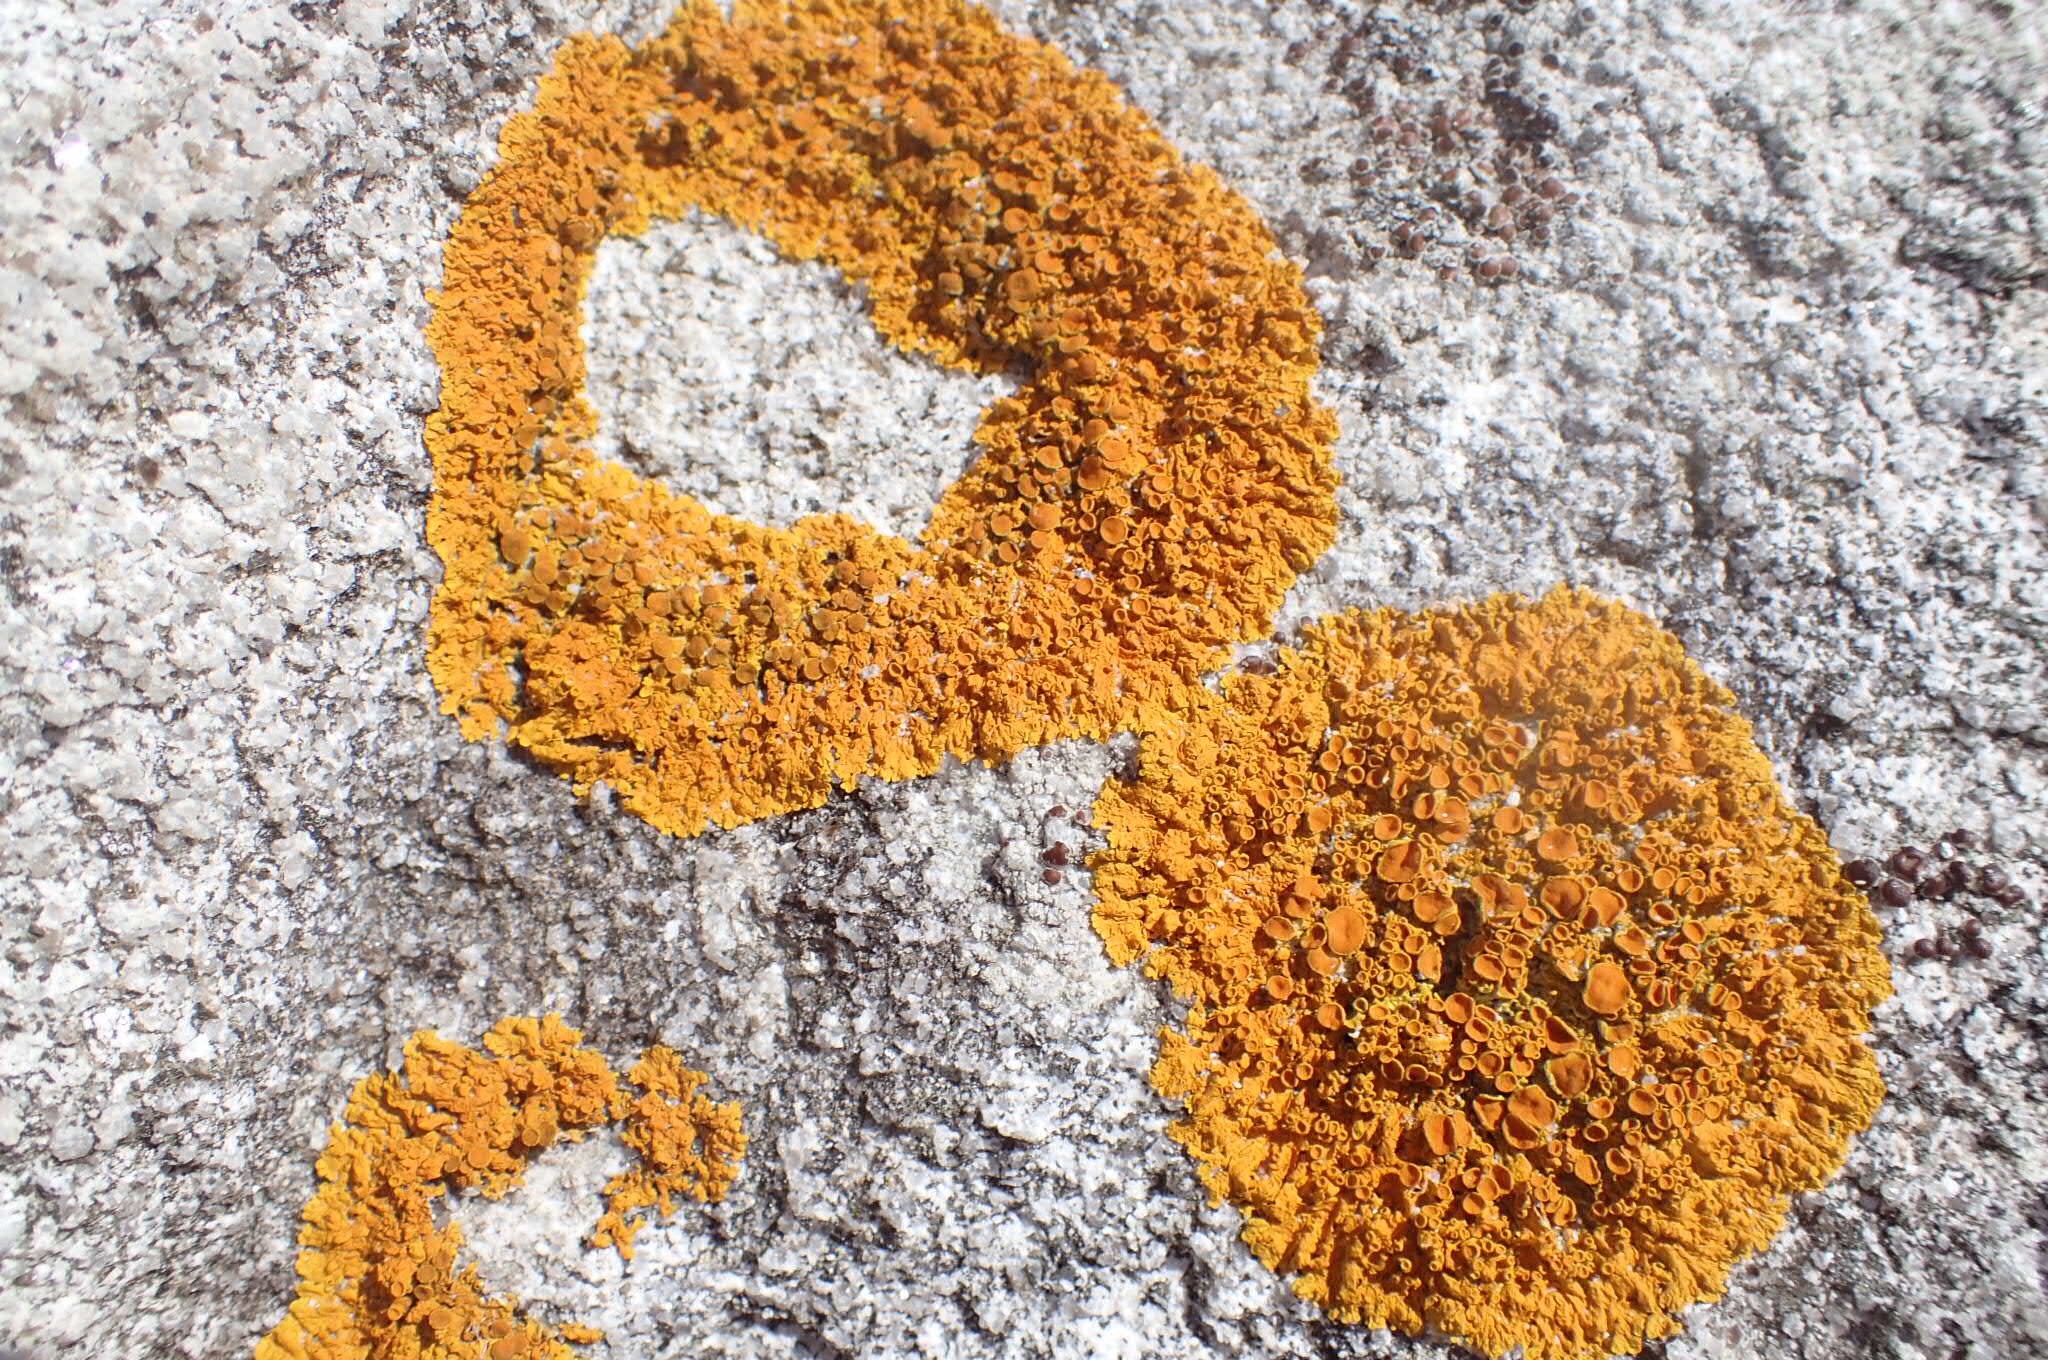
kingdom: Fungi
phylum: Ascomycota
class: Lecanoromycetes
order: Teloschistales
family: Teloschistaceae
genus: Xanthoria
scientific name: Xanthoria parietina
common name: Common orange lichen
